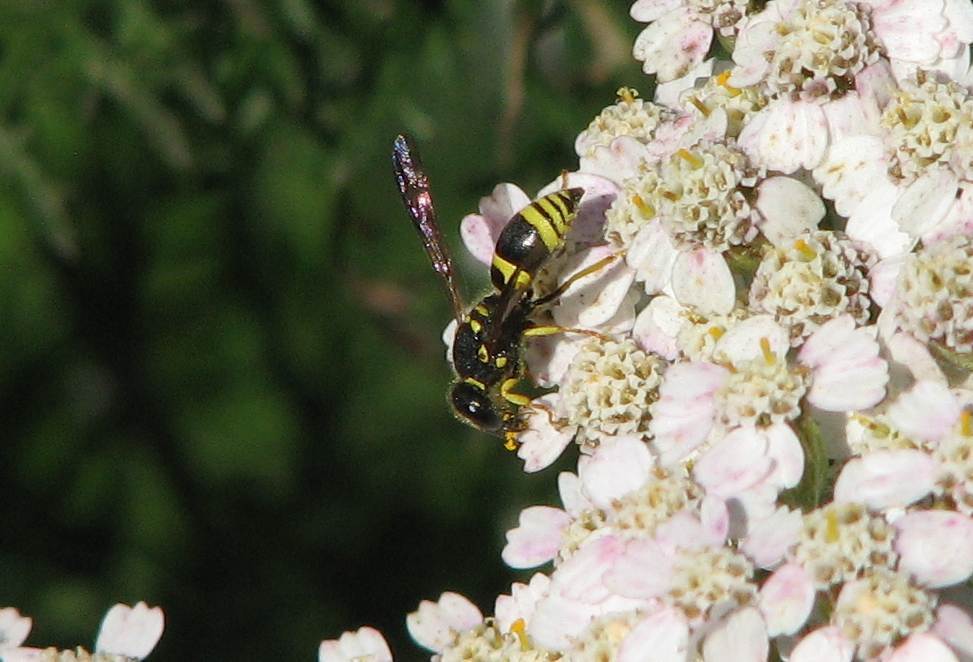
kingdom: Animalia
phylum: Arthropoda
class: Insecta
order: Hymenoptera
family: Vespidae
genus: Ancistrocerus
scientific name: Ancistrocerus gazella
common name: European tube wasp
